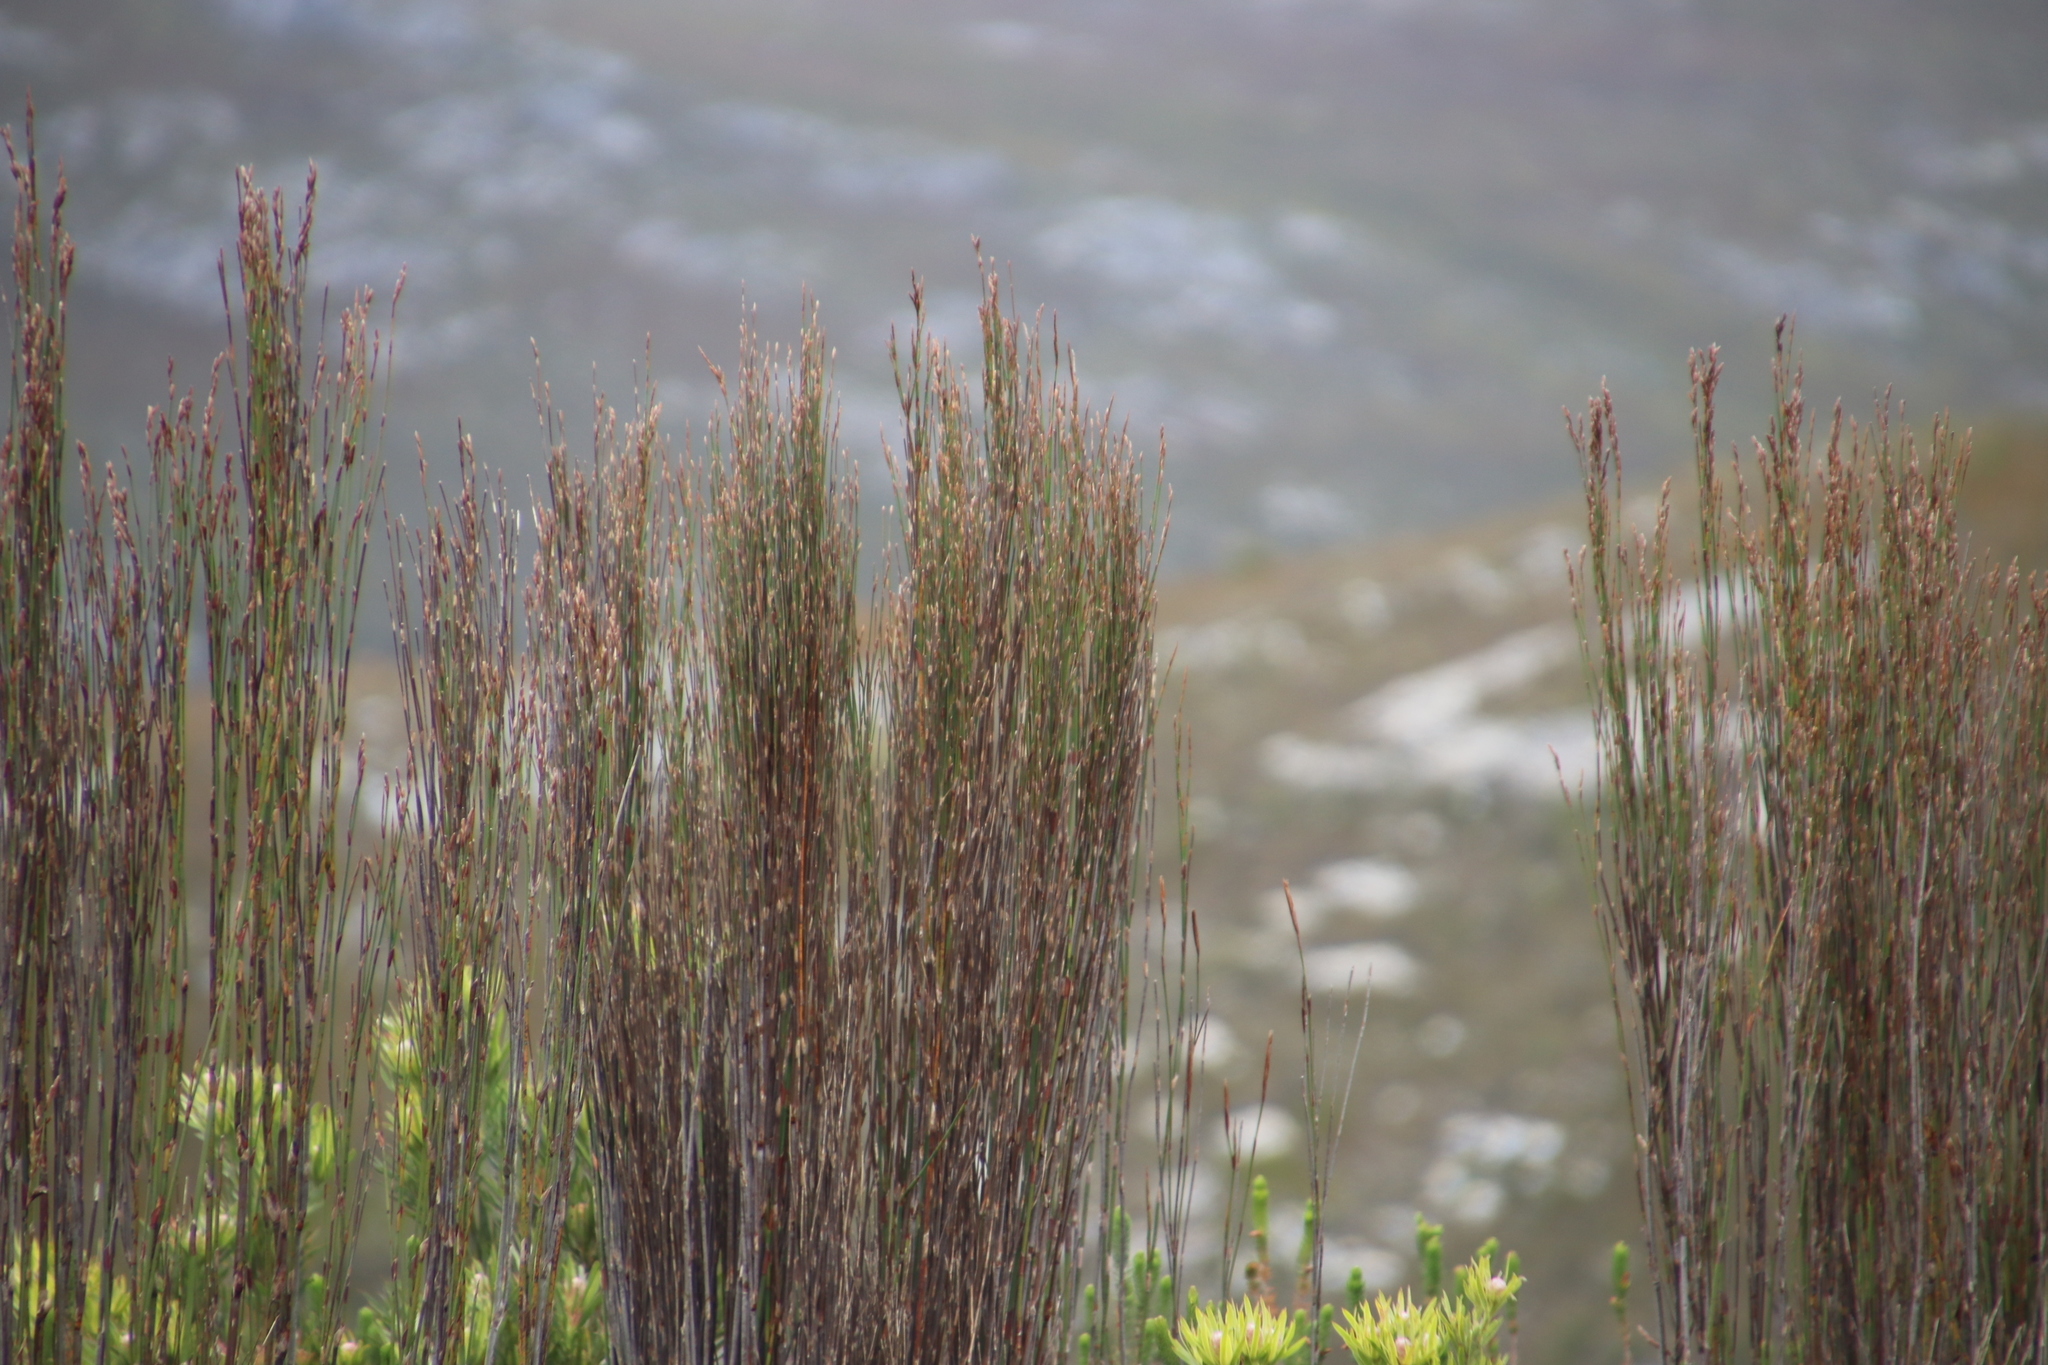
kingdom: Plantae
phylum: Tracheophyta
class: Liliopsida
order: Poales
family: Restionaceae
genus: Restio
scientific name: Restio dispar
